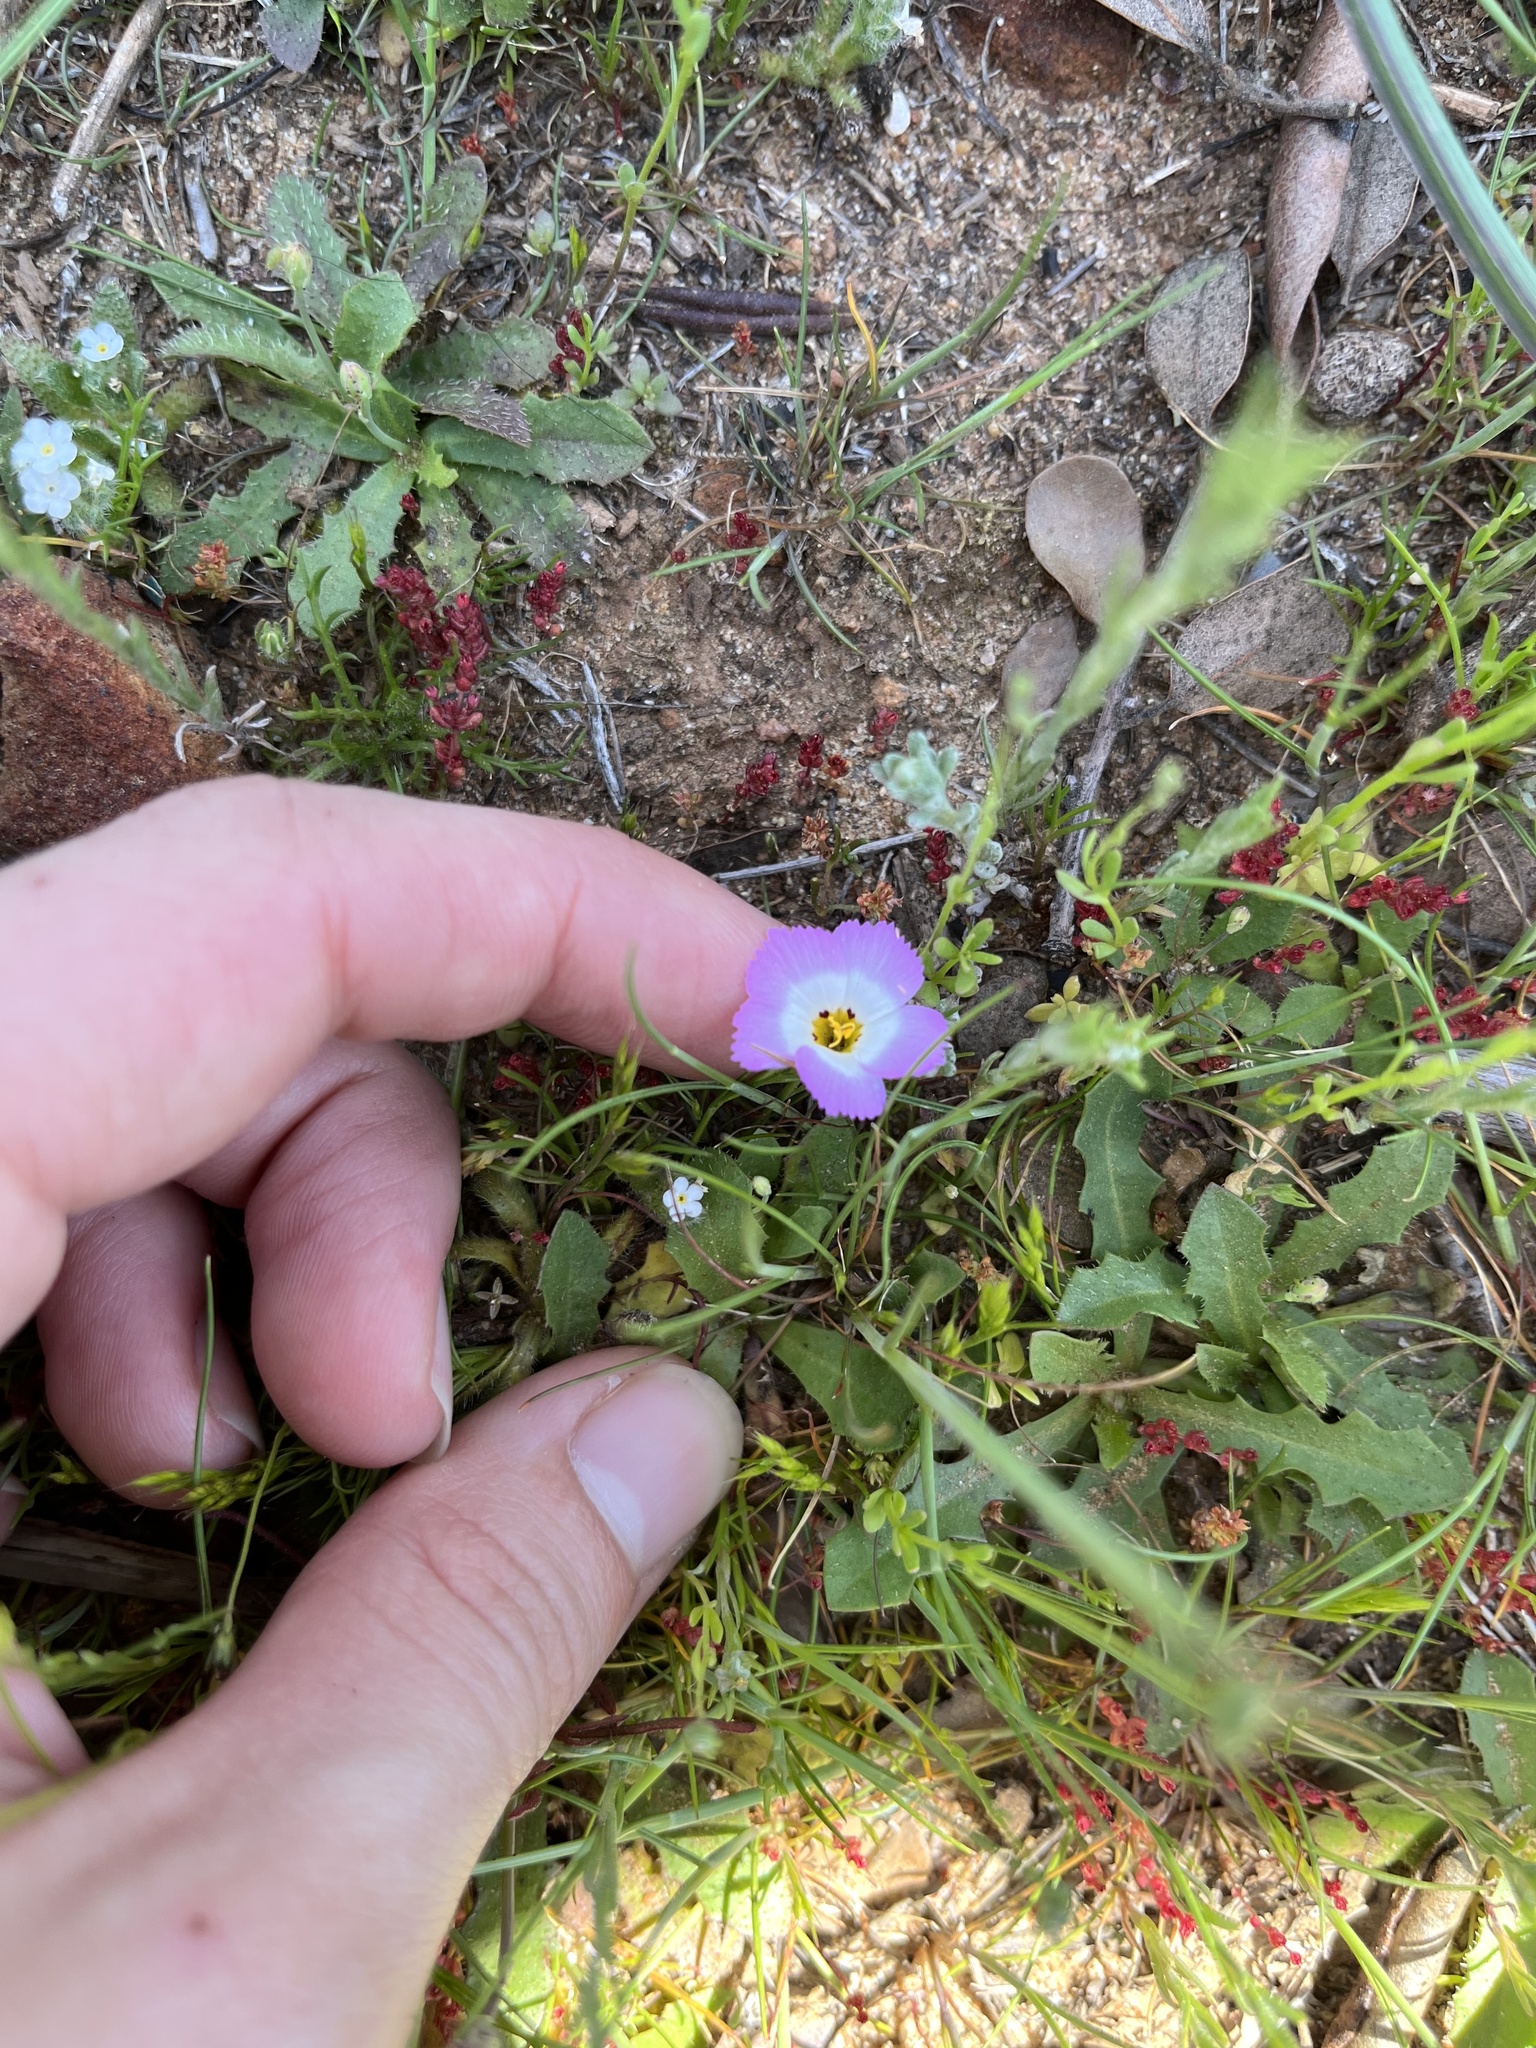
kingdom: Plantae
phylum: Tracheophyta
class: Magnoliopsida
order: Ericales
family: Polemoniaceae
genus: Linanthus
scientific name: Linanthus dianthiflorus
